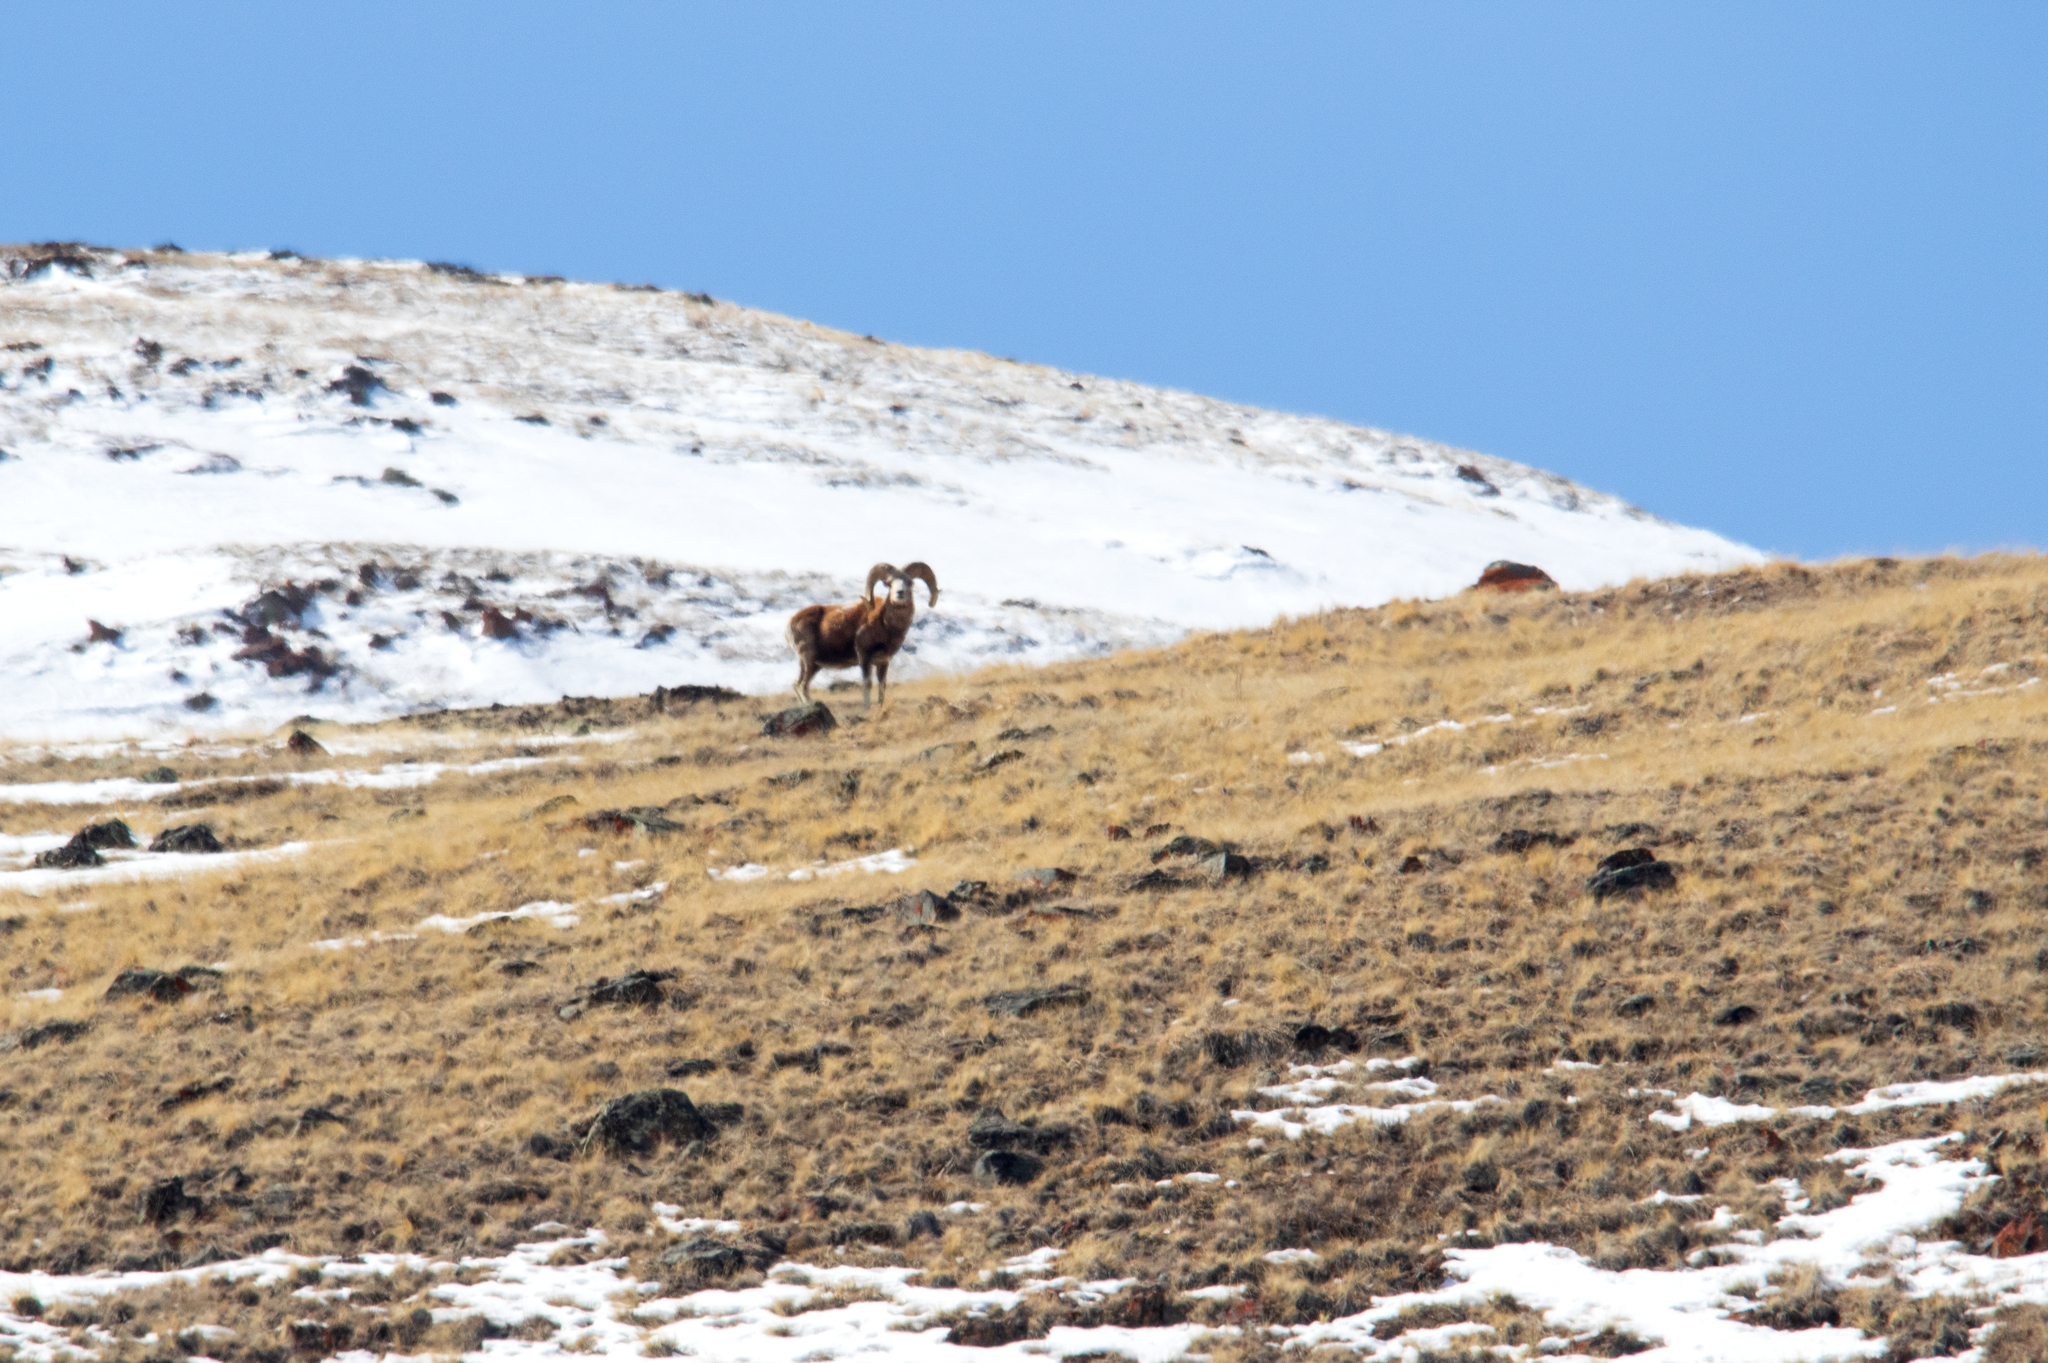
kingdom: Animalia
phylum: Chordata
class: Mammalia
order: Artiodactyla
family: Bovidae
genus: Ovis
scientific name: Ovis ammon
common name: Argali
